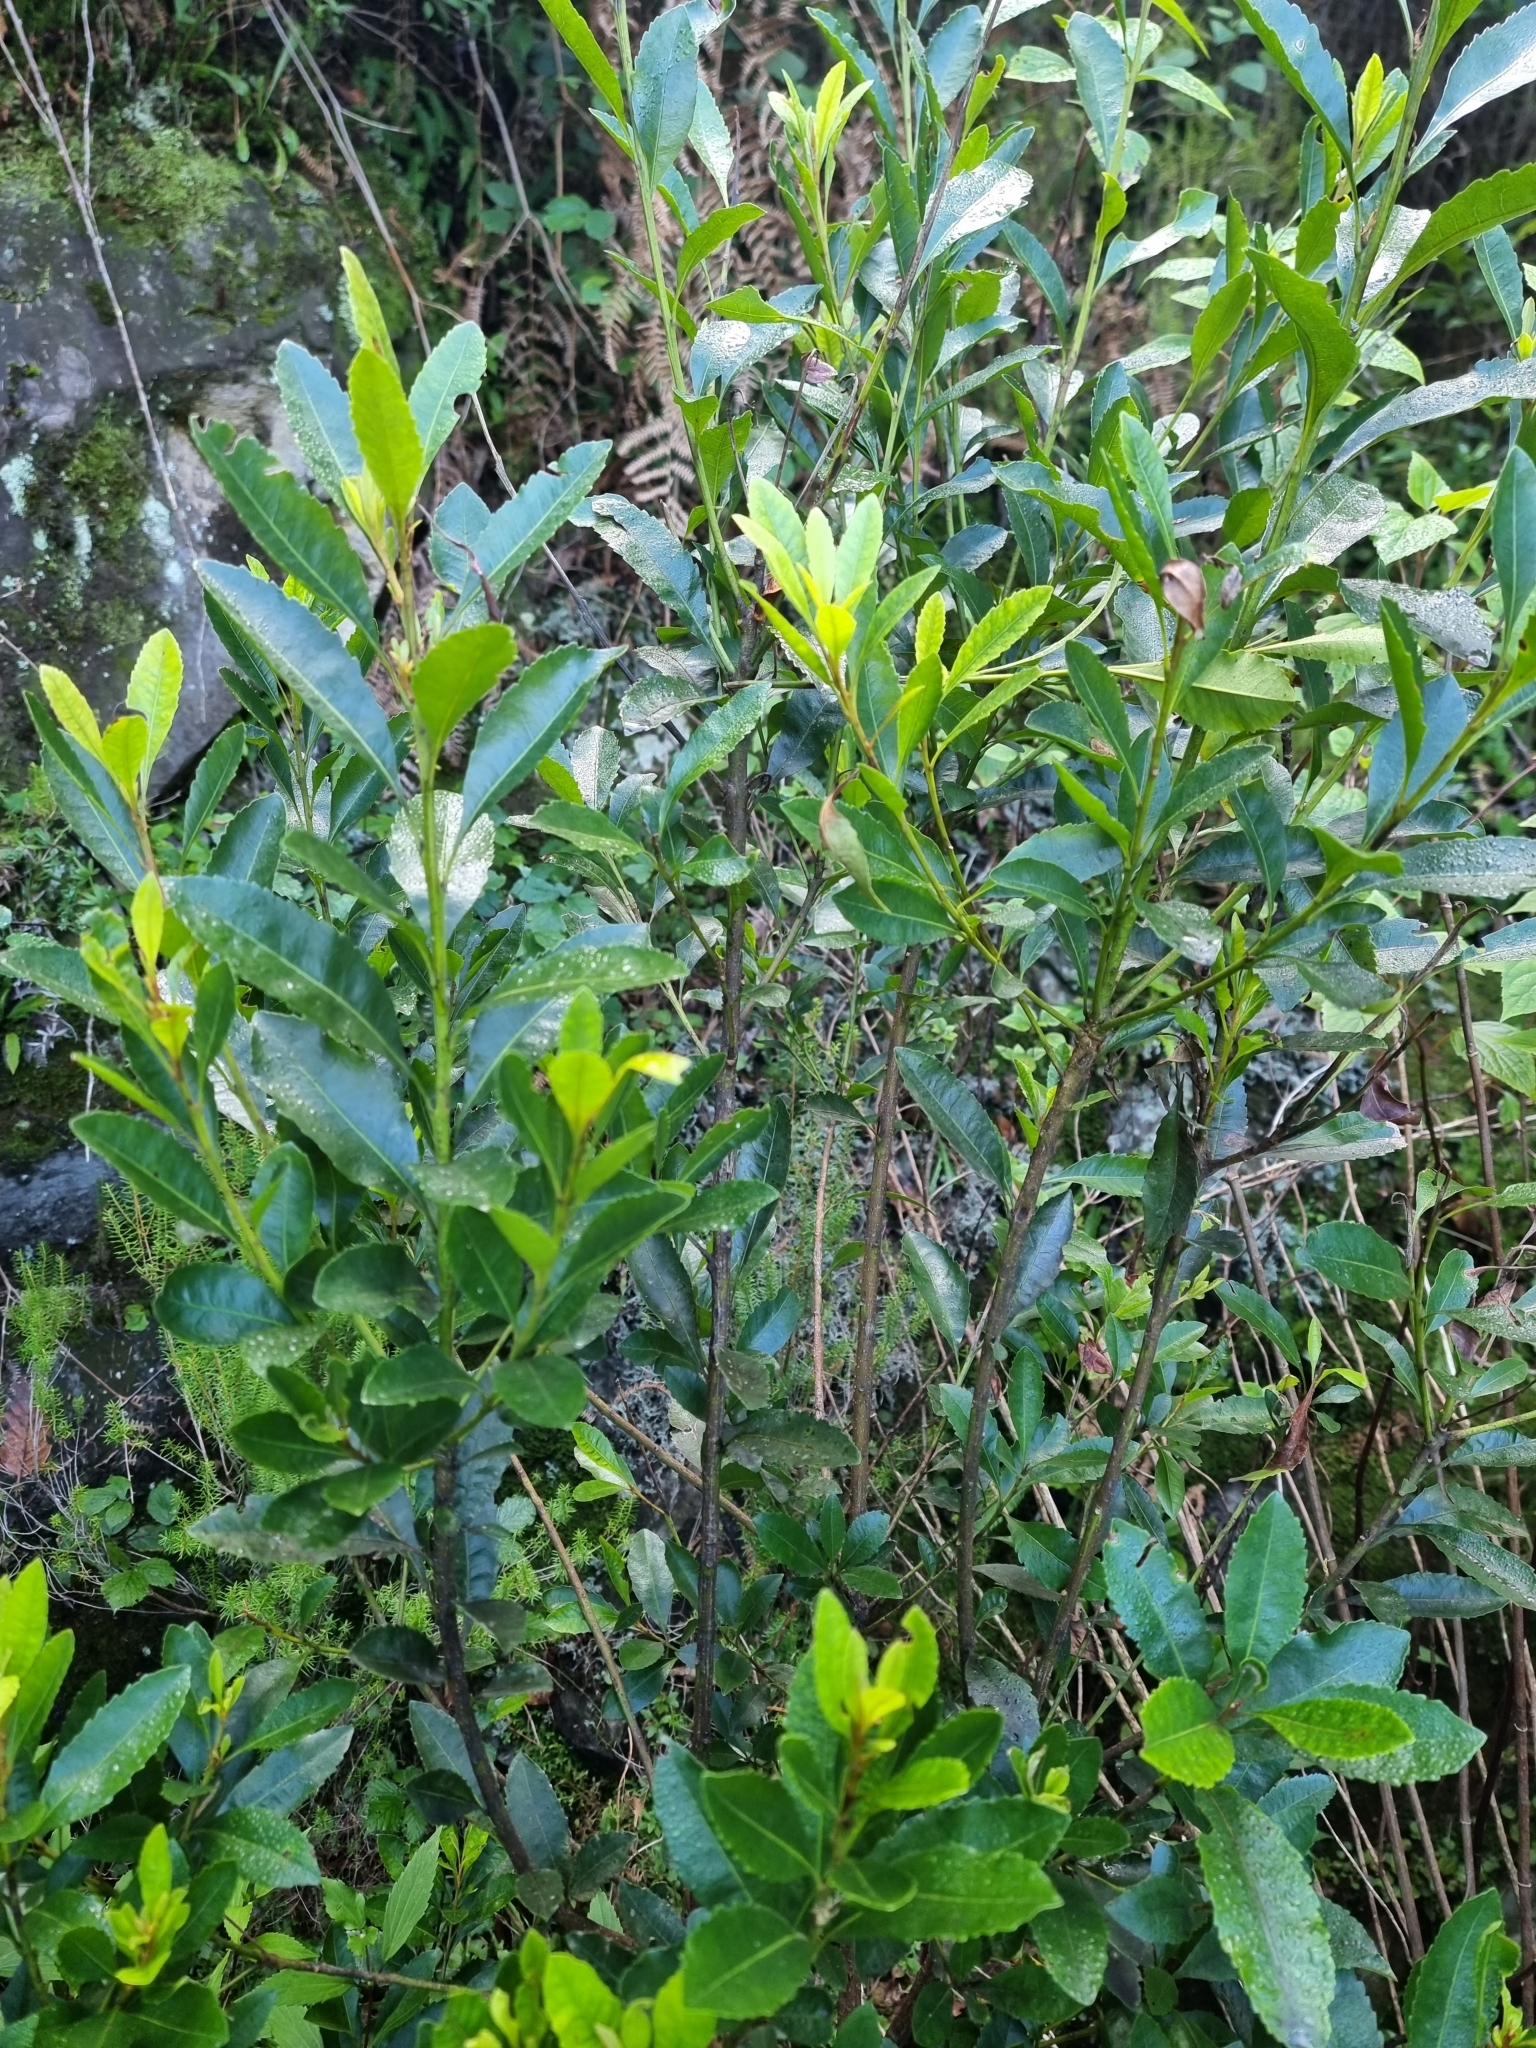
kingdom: Plantae
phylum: Tracheophyta
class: Magnoliopsida
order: Fagales
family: Myricaceae
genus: Morella
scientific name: Morella faya
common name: Firetree
